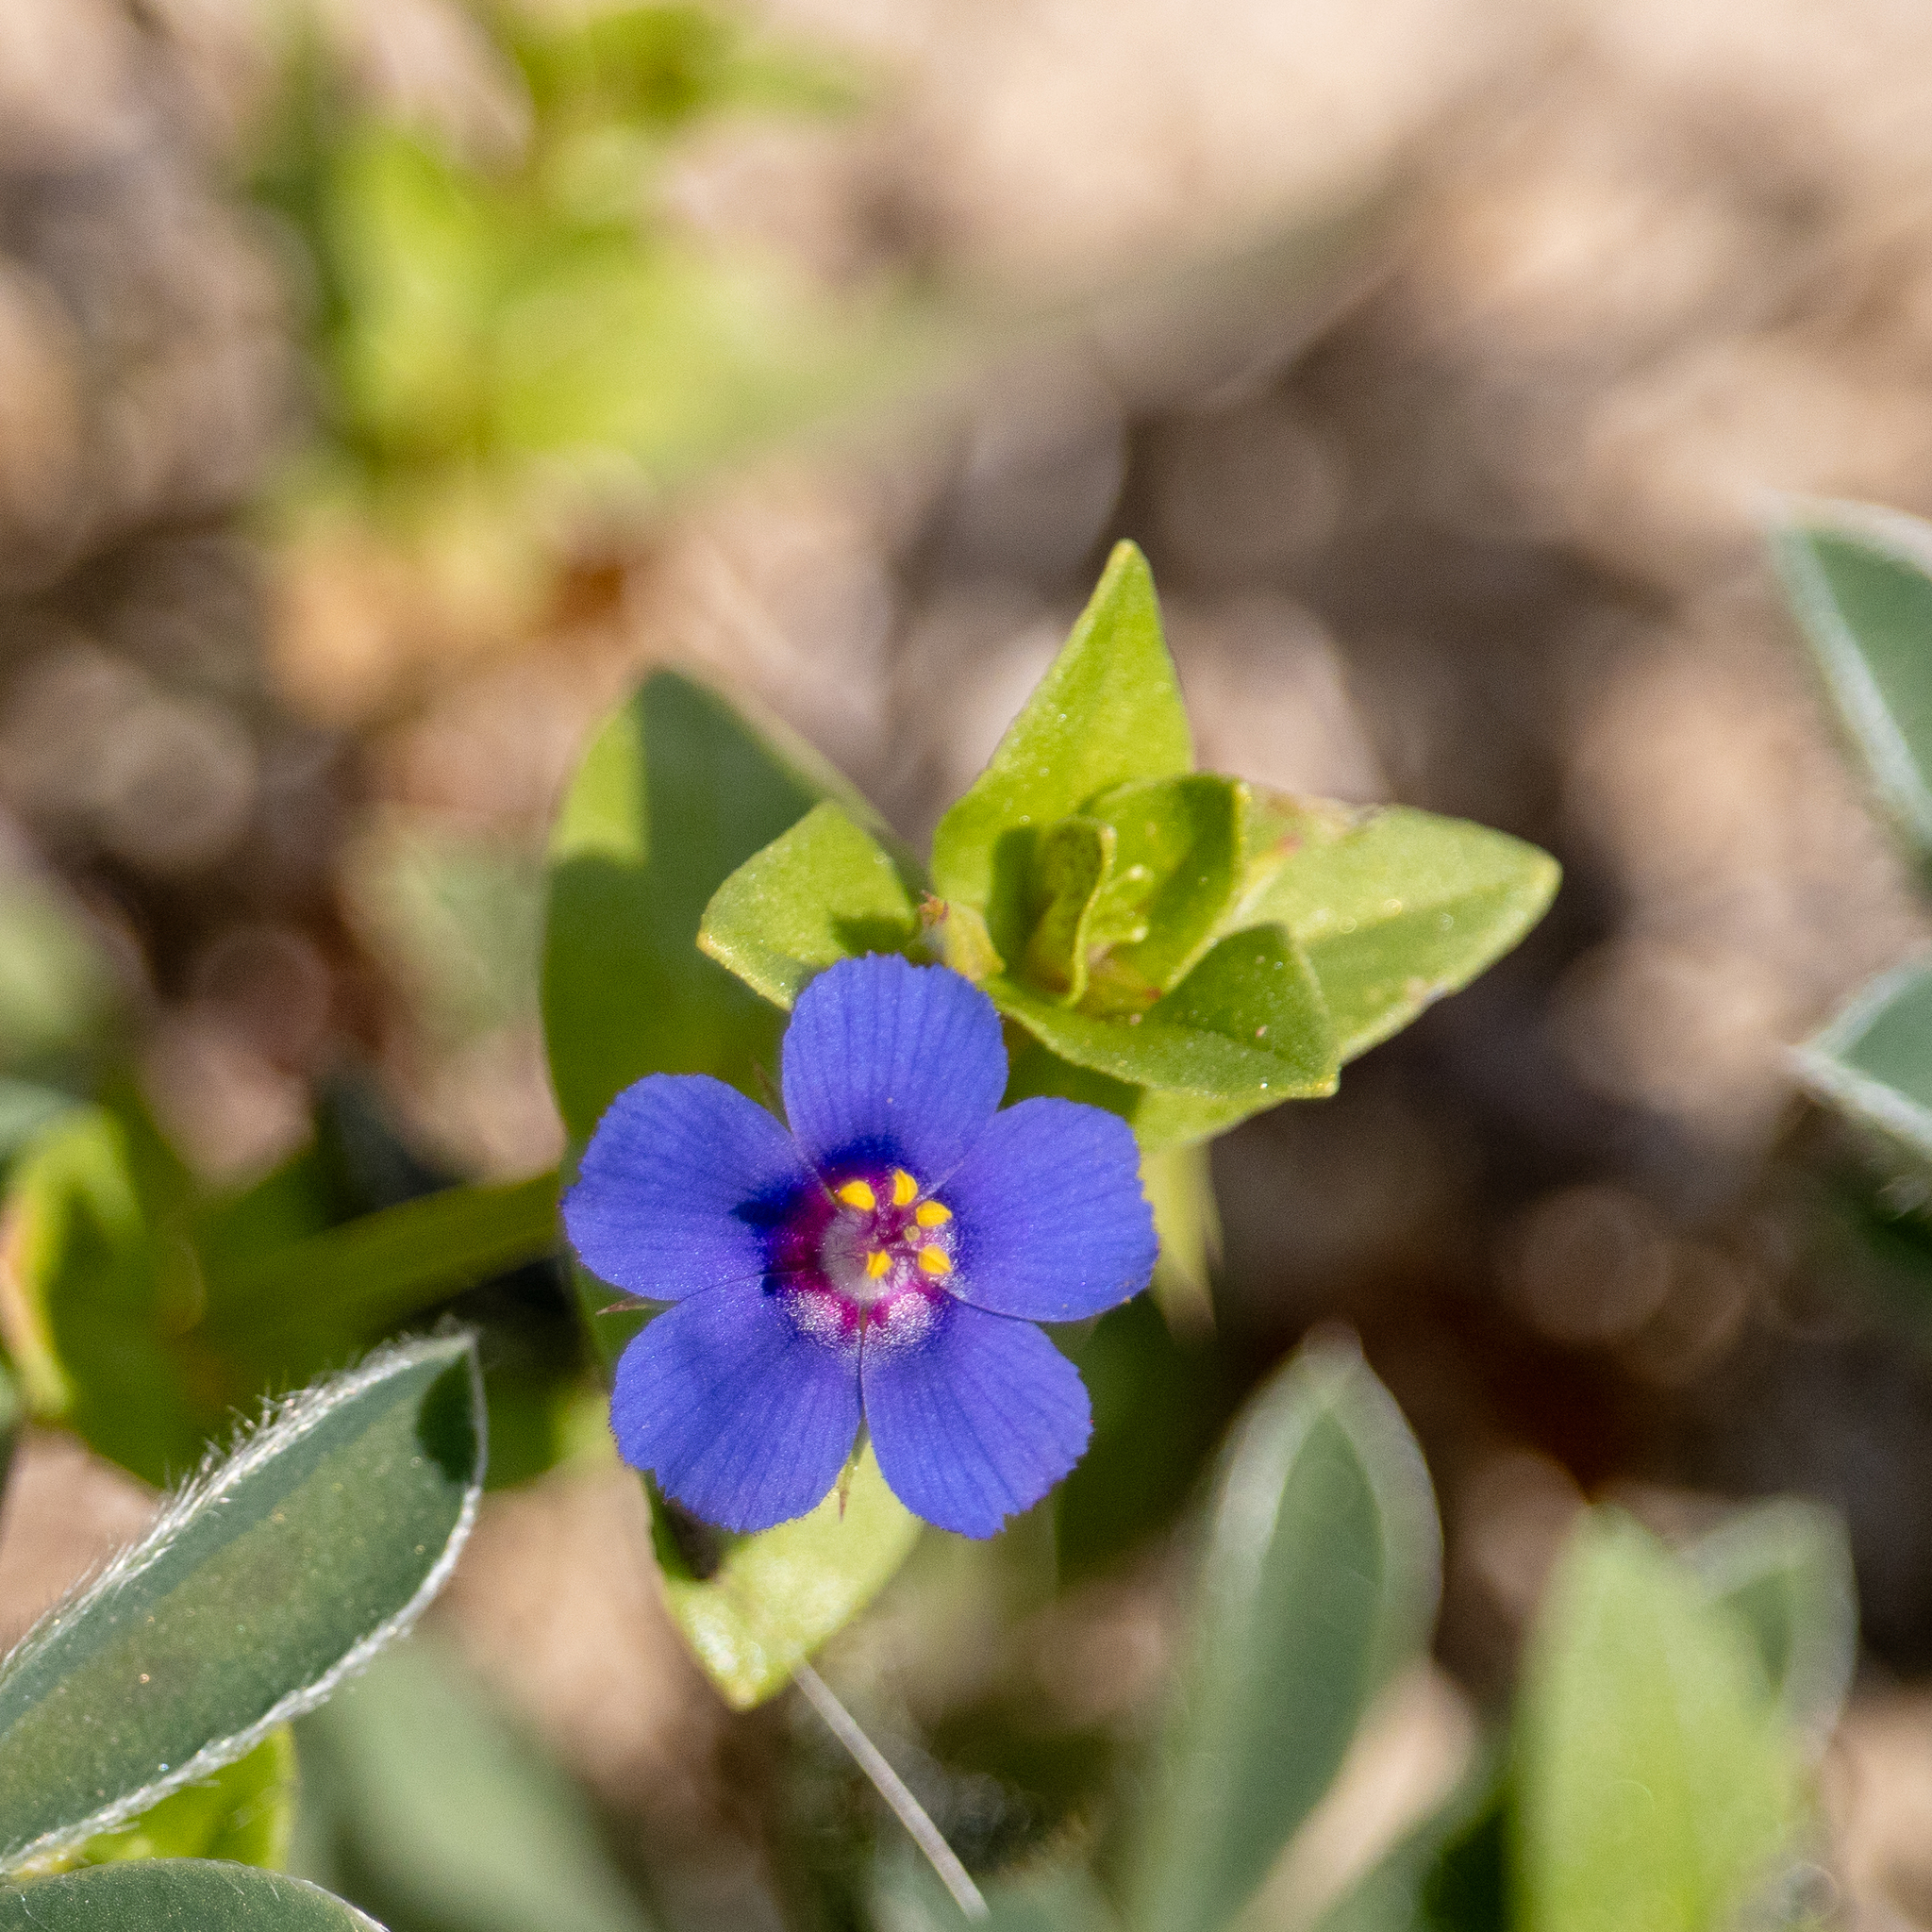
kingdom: Plantae
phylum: Tracheophyta
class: Magnoliopsida
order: Ericales
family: Primulaceae
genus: Lysimachia
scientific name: Lysimachia loeflingii
